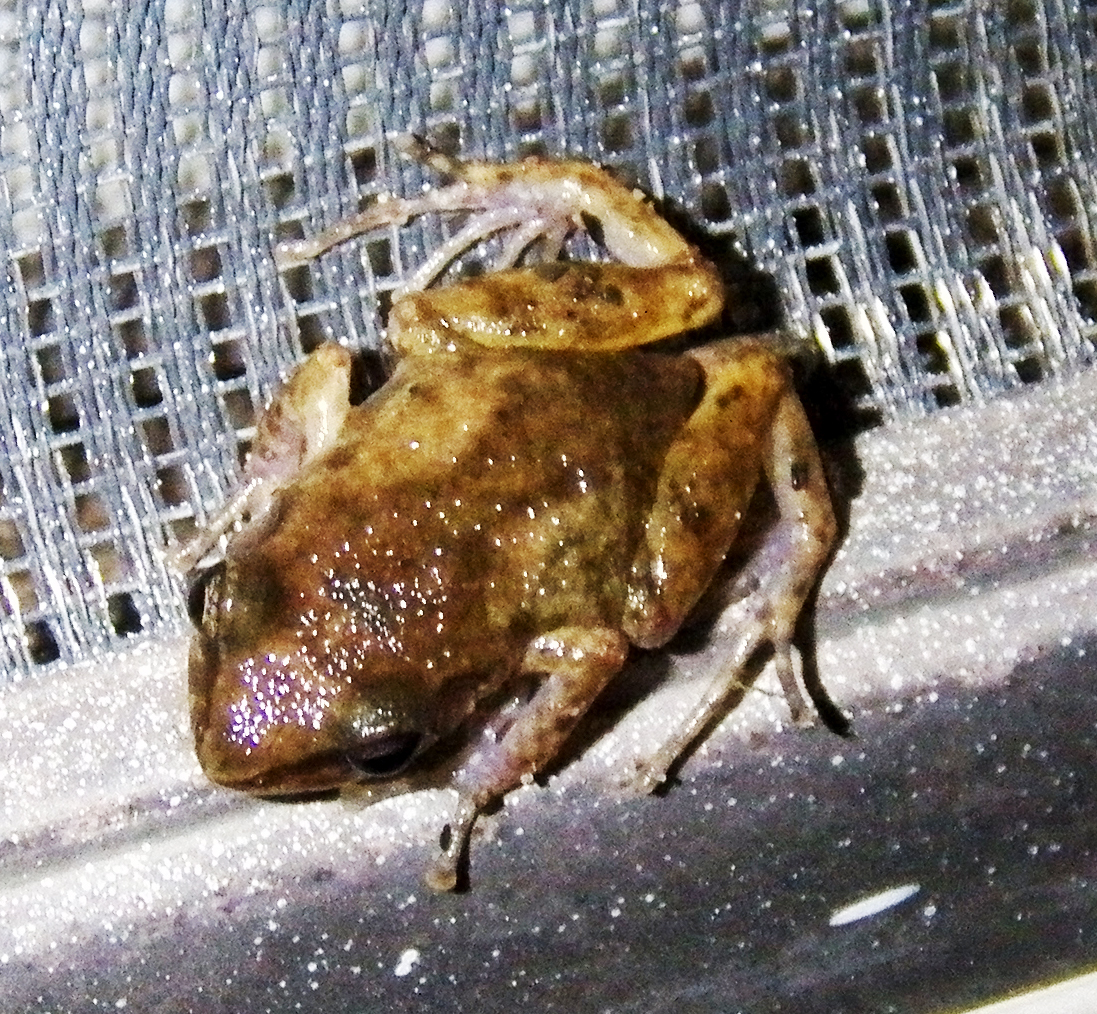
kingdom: Animalia
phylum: Chordata
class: Amphibia
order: Anura
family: Eleutherodactylidae
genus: Eleutherodactylus
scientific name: Eleutherodactylus campi
